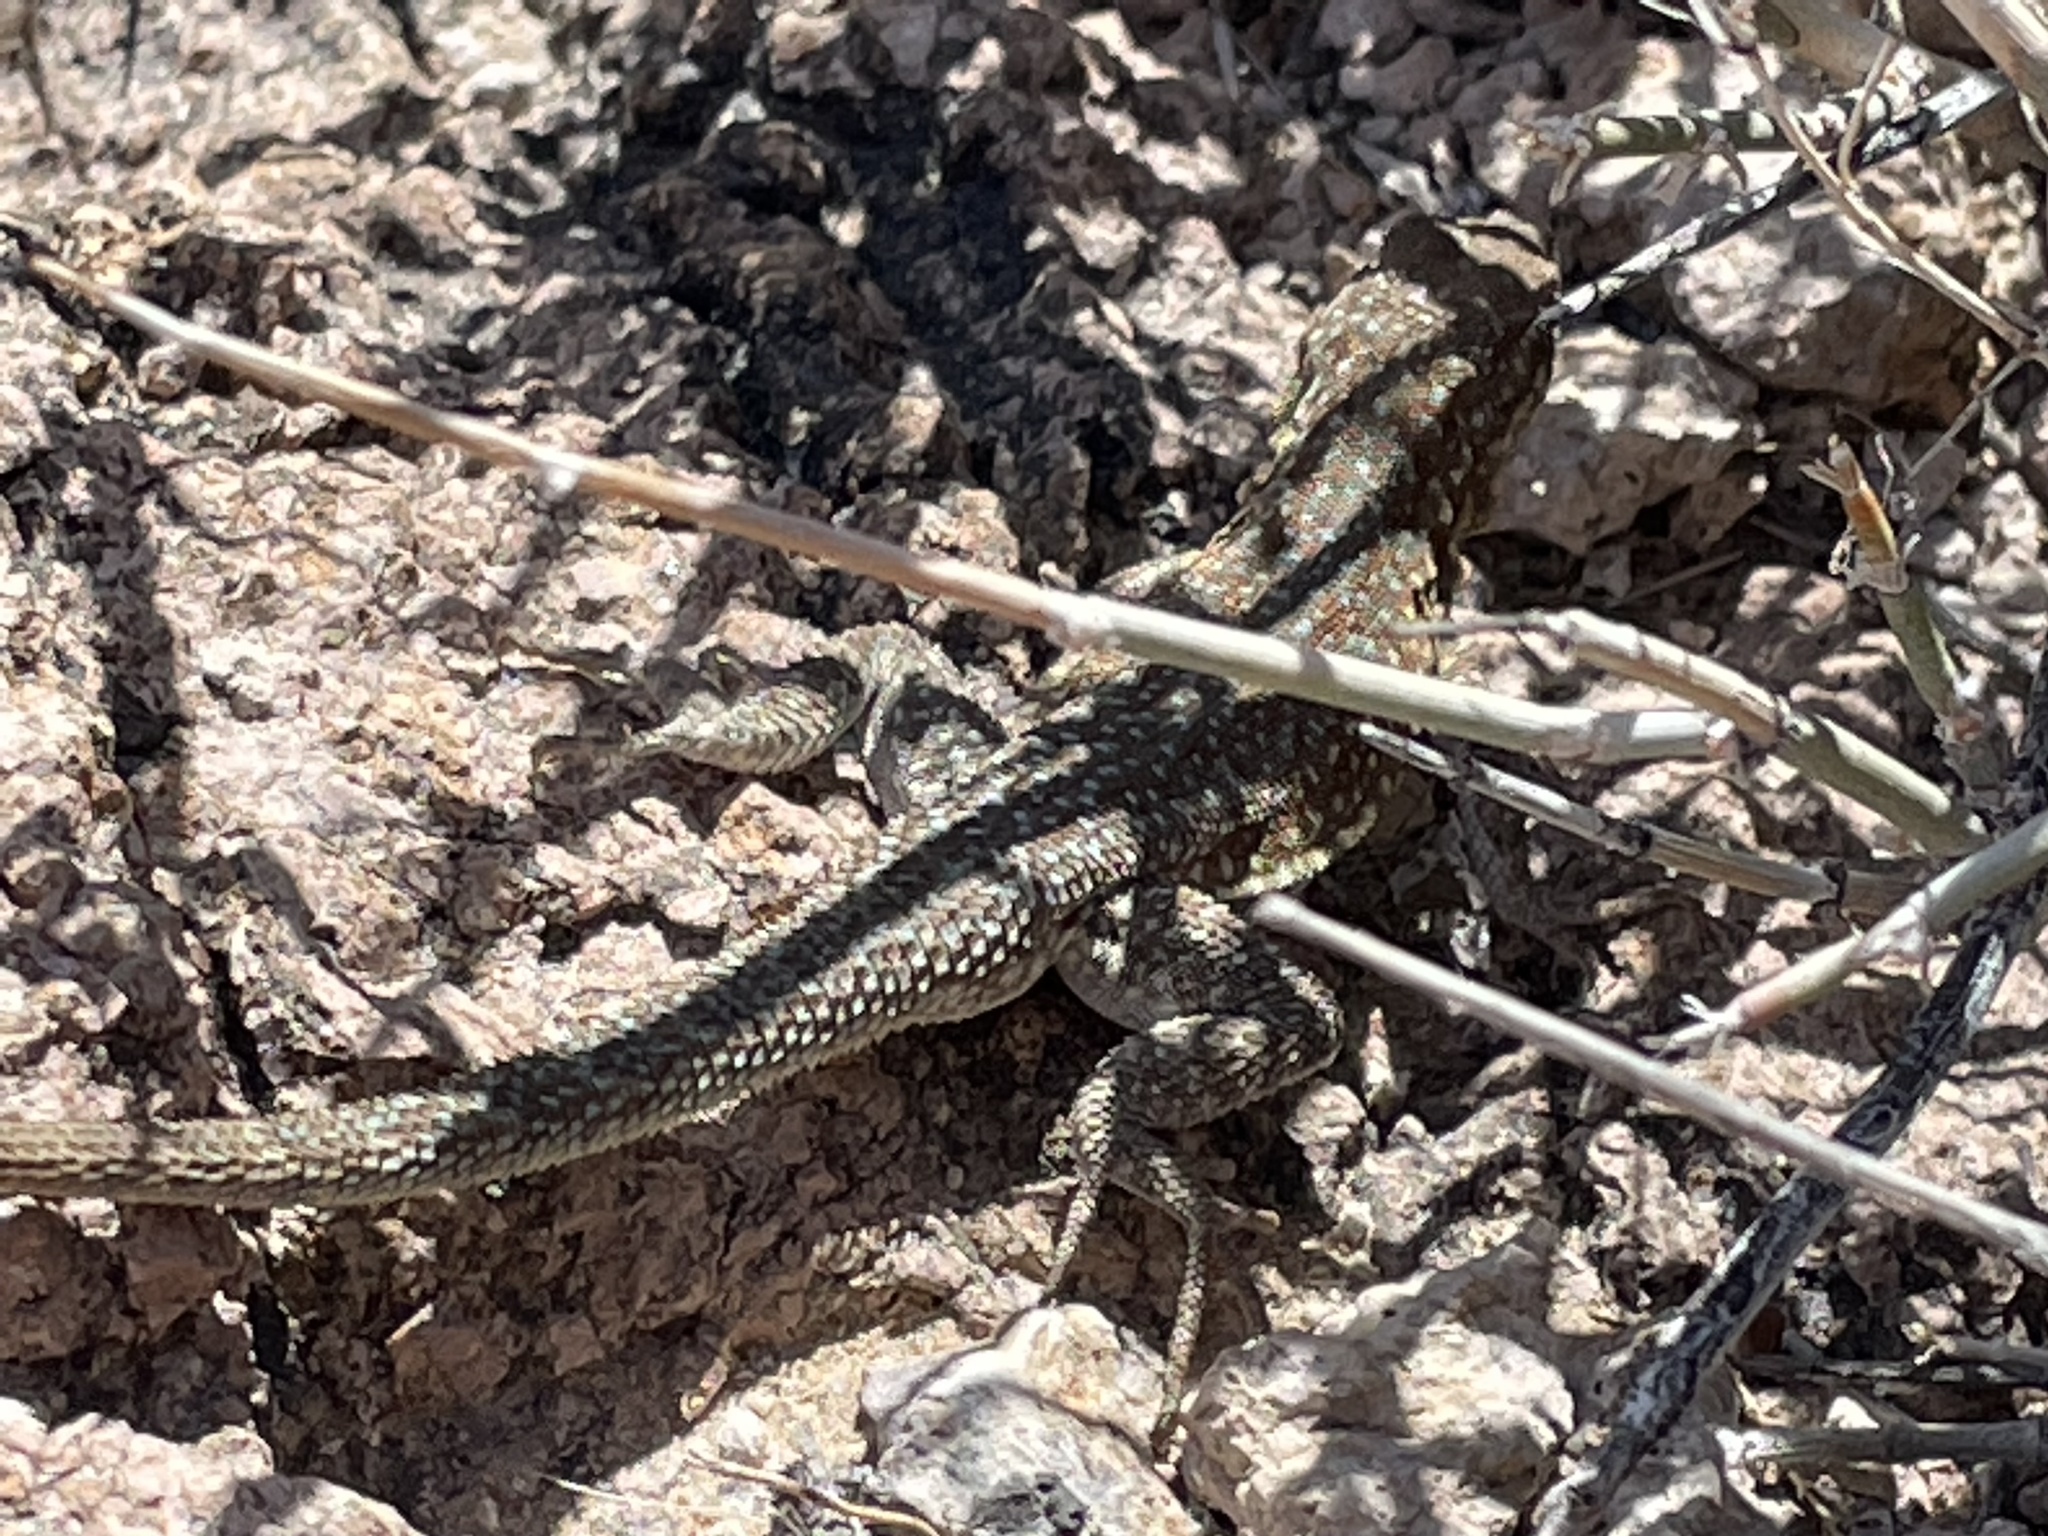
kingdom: Animalia
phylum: Chordata
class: Squamata
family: Phrynosomatidae
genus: Uta
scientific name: Uta stansburiana
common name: Side-blotched lizard
